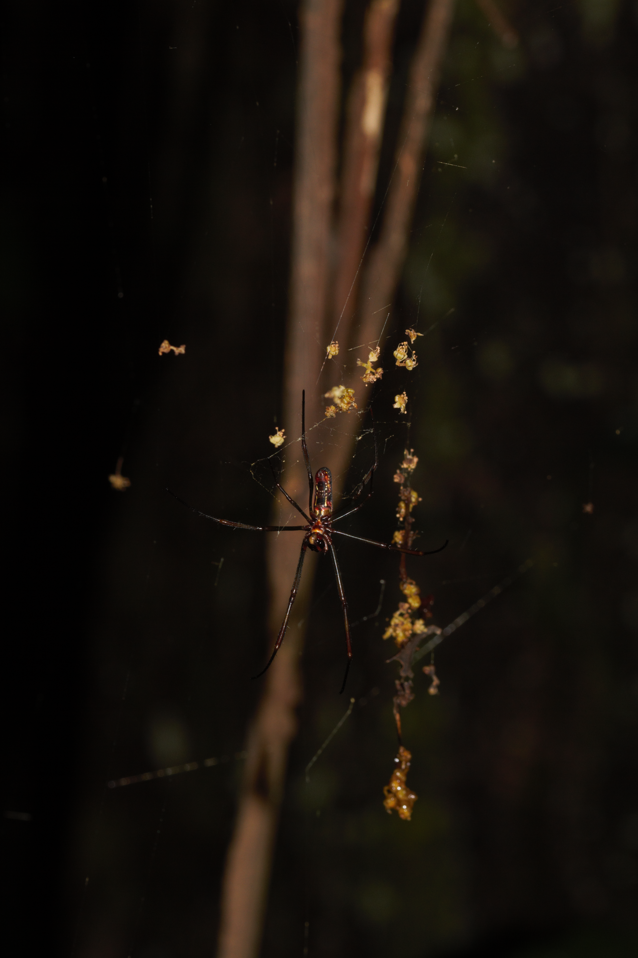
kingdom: Animalia
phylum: Arthropoda
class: Arachnida
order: Araneae
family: Araneidae
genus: Nephila
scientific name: Nephila cornuta
